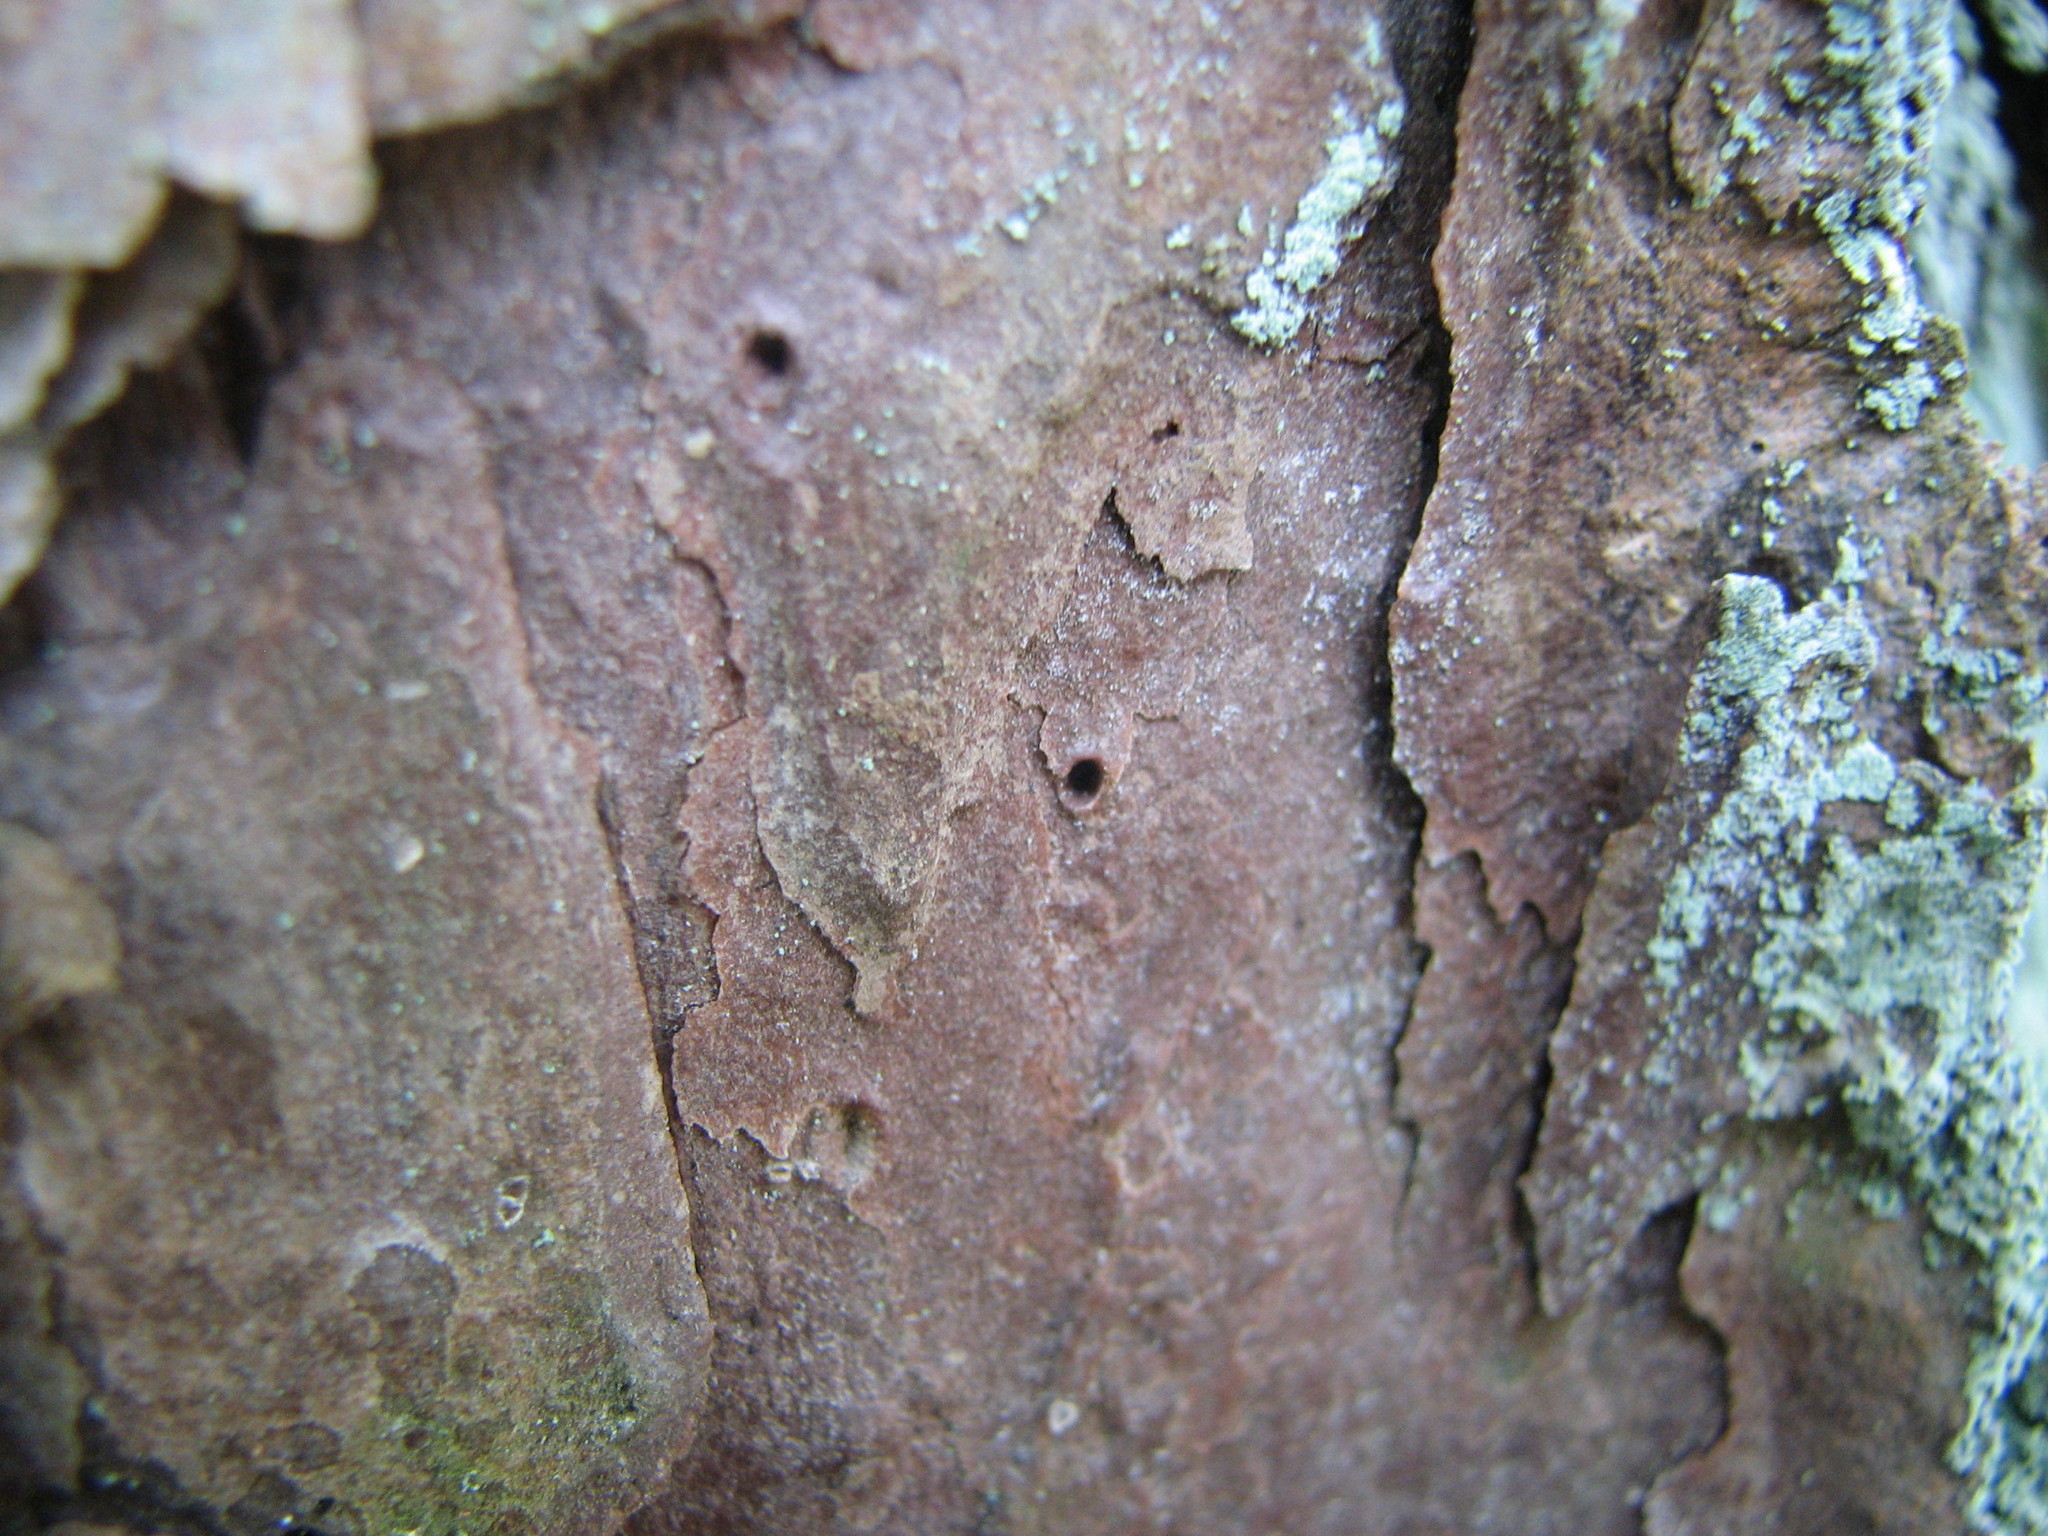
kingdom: Plantae
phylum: Tracheophyta
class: Pinopsida
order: Pinales
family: Pinaceae
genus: Pinus
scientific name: Pinus echinata
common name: Shortleaf pine
